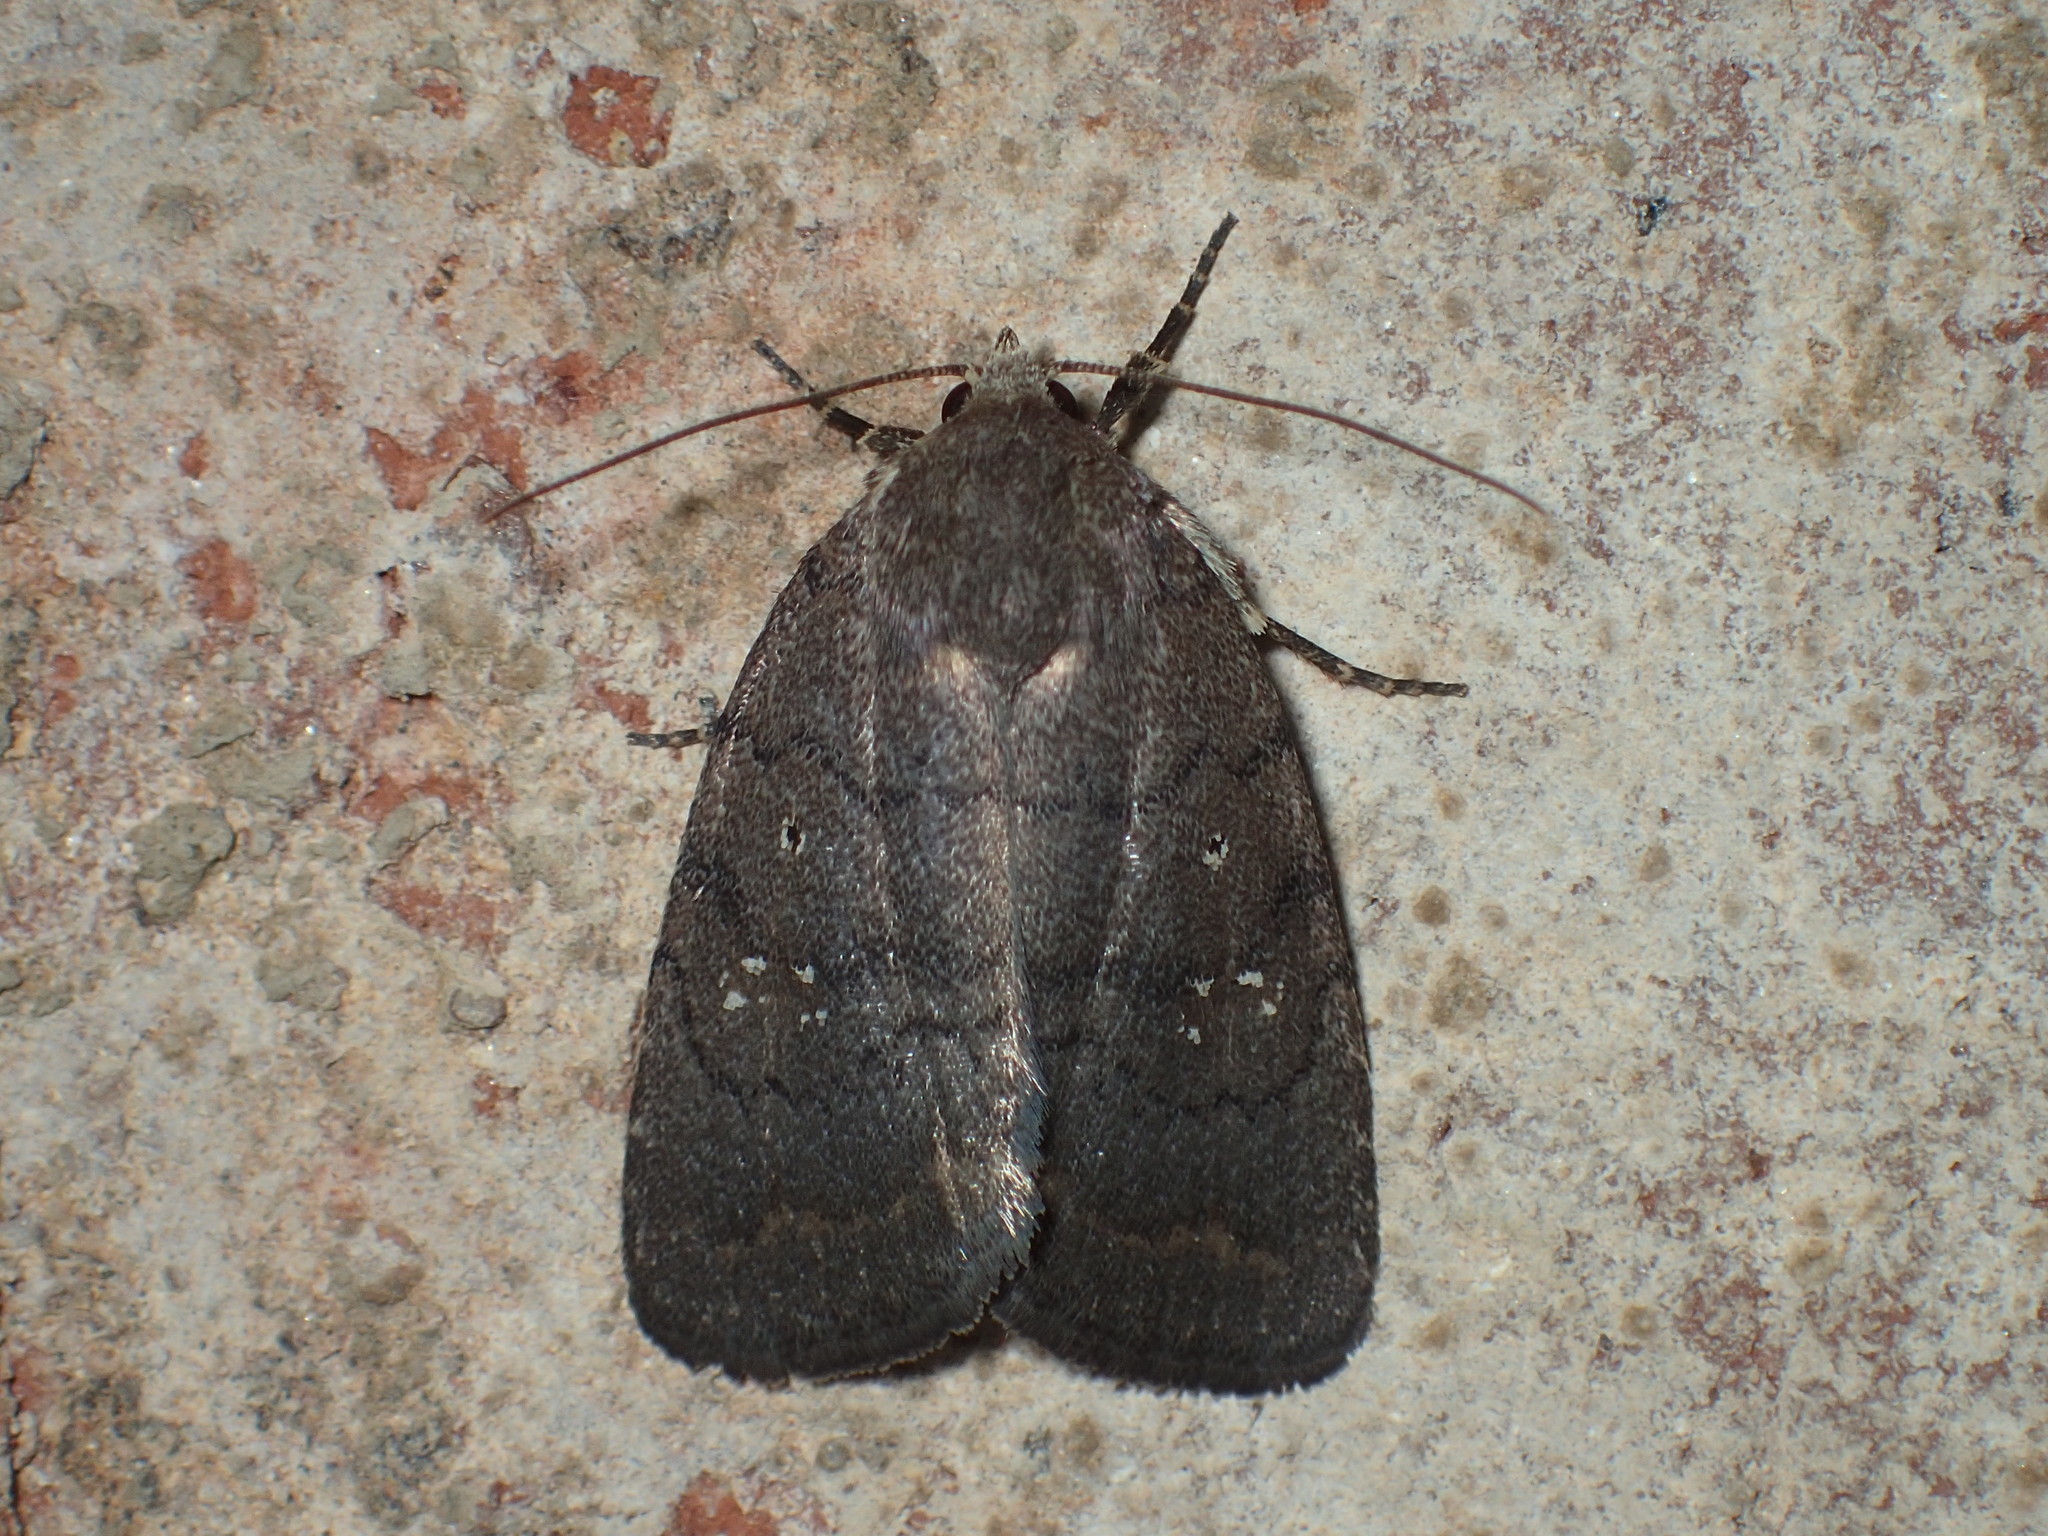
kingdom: Animalia
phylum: Arthropoda
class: Insecta
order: Lepidoptera
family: Noctuidae
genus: Athetis
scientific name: Athetis tarda
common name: Slowpoke moth
